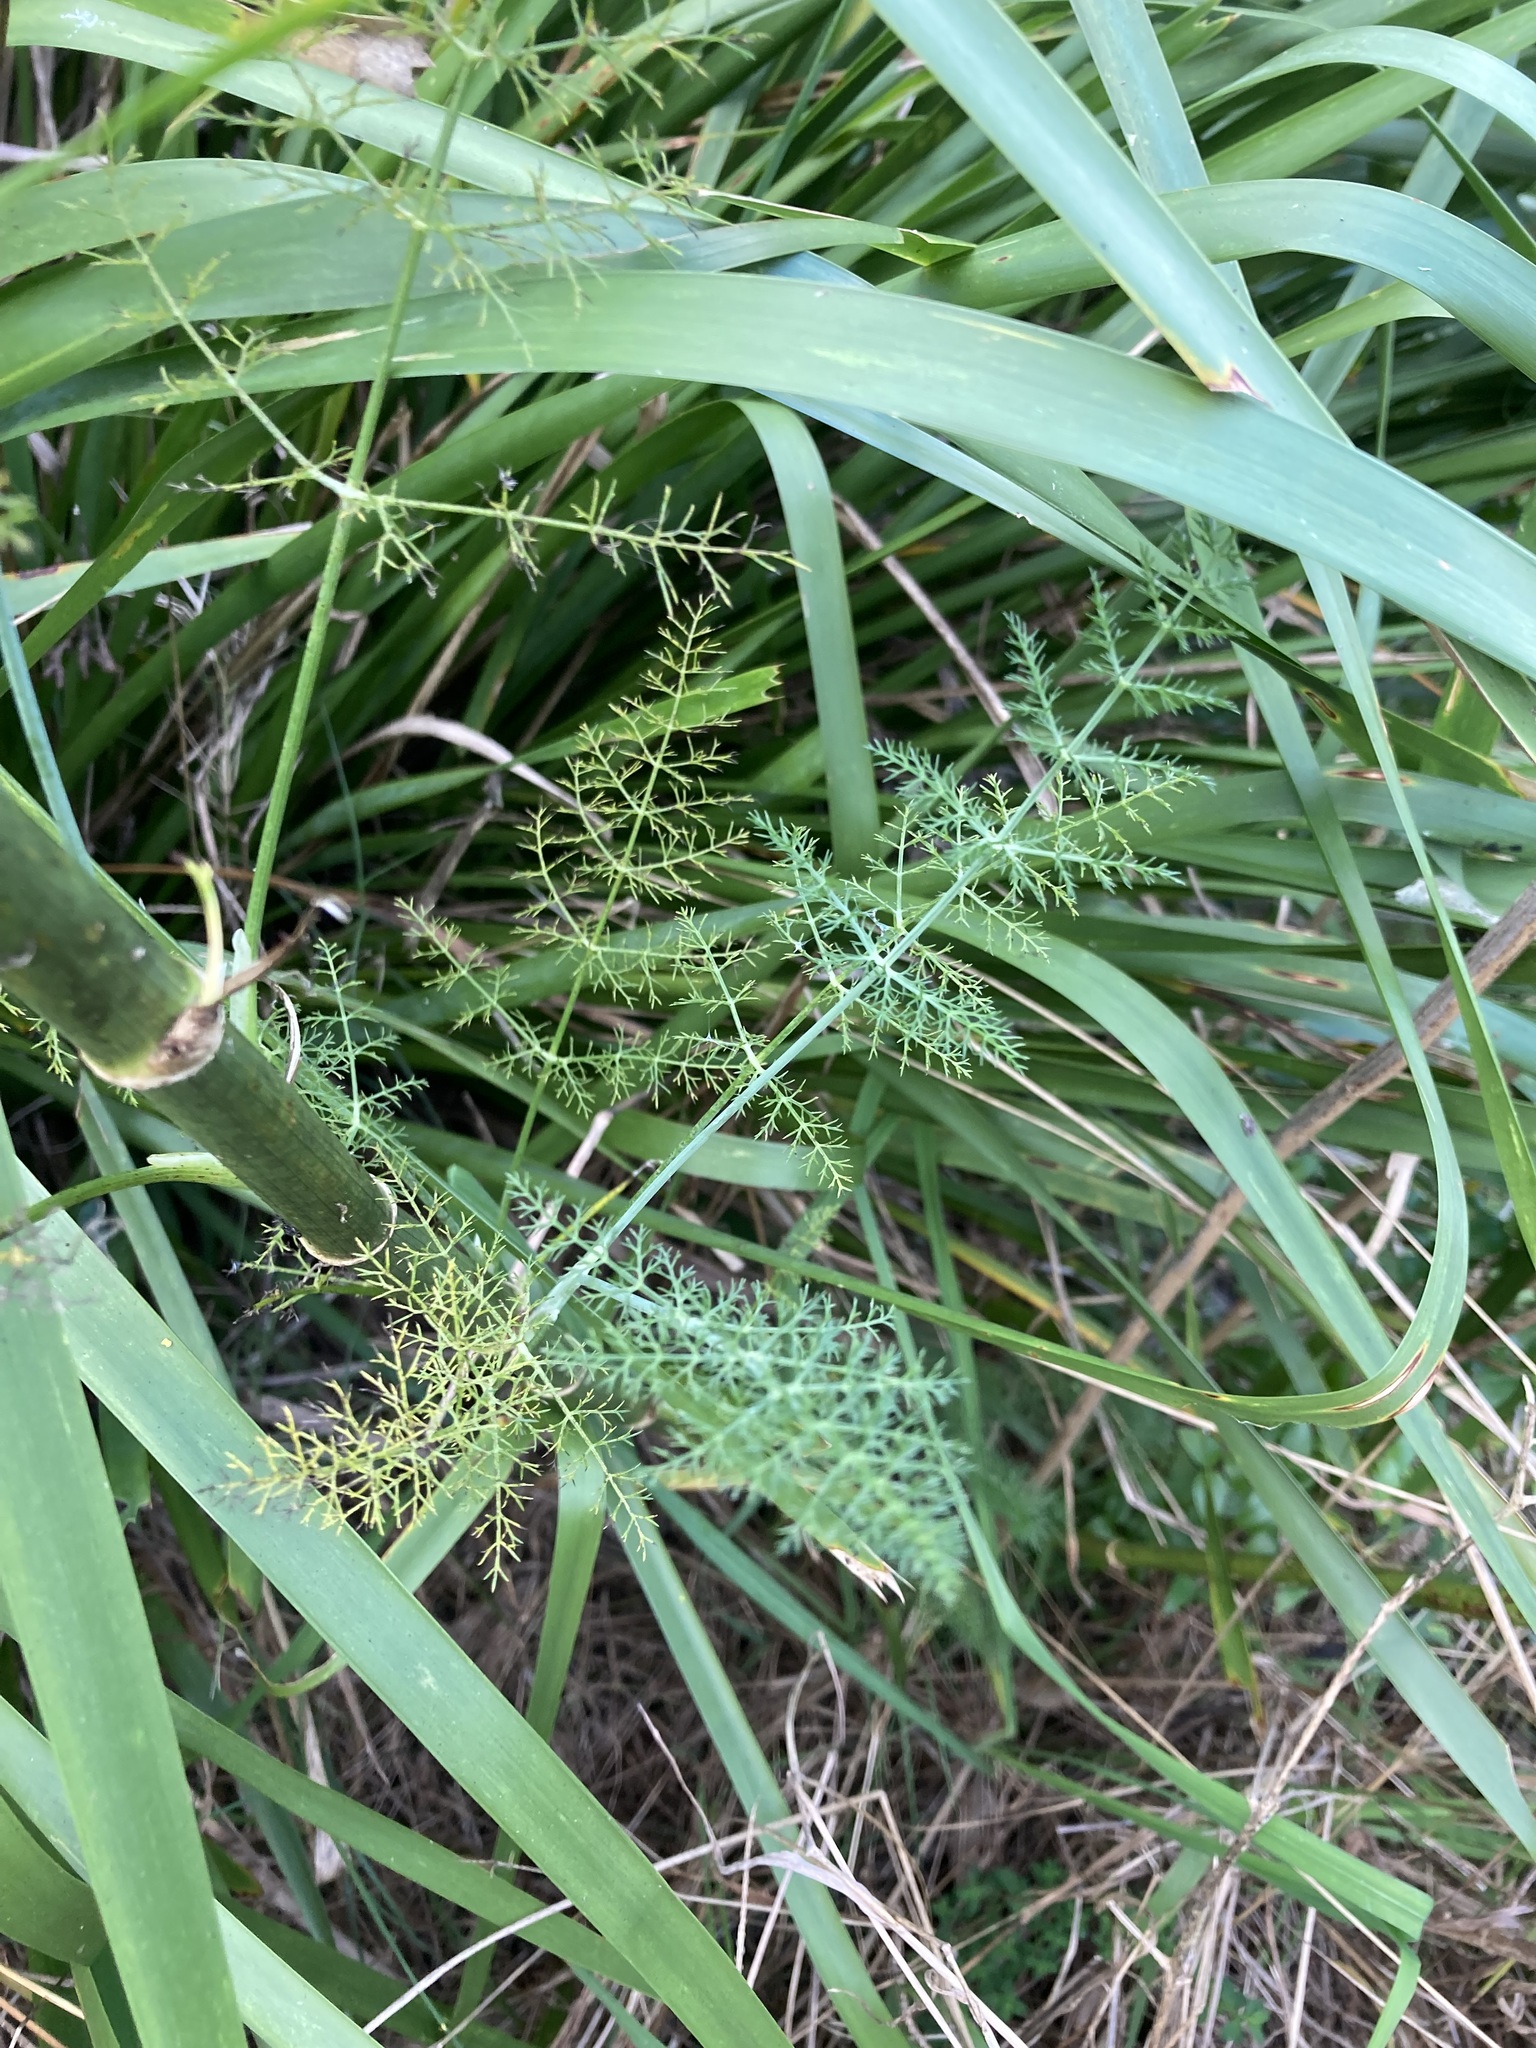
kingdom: Plantae
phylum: Tracheophyta
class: Magnoliopsida
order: Apiales
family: Apiaceae
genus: Foeniculum
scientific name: Foeniculum vulgare
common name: Fennel
